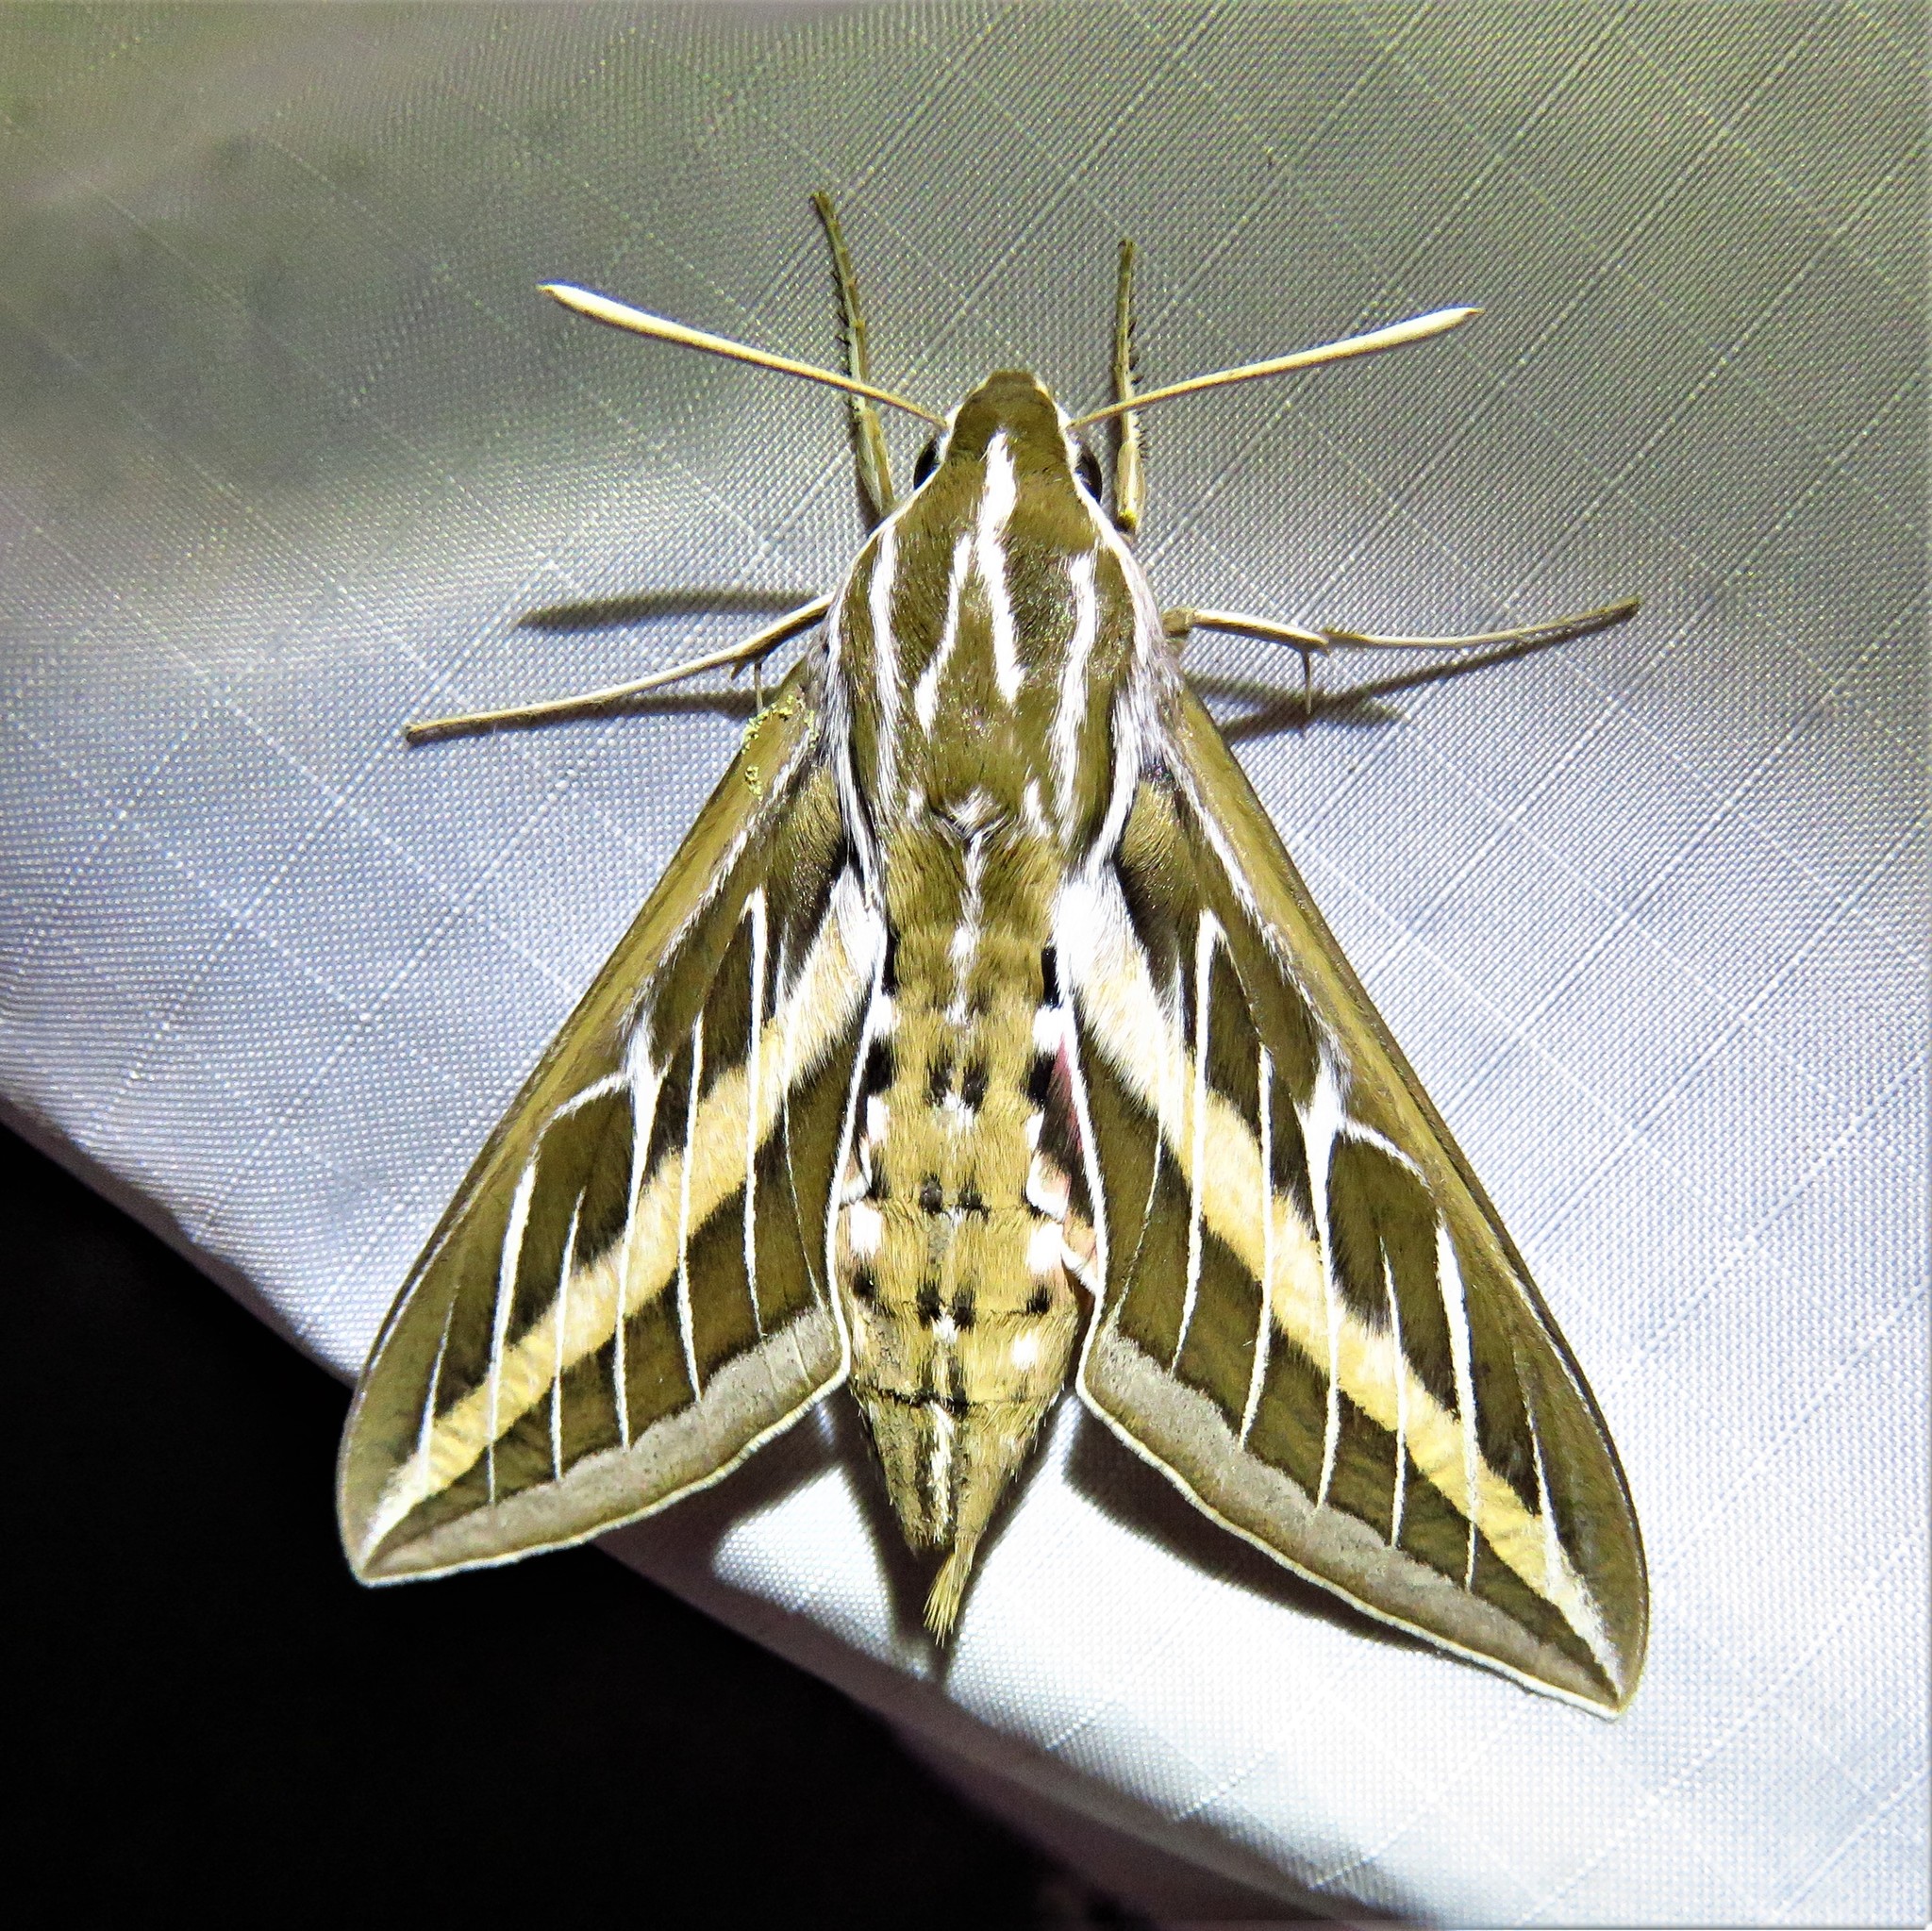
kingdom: Animalia
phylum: Arthropoda
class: Insecta
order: Lepidoptera
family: Sphingidae
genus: Hyles
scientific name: Hyles lineata
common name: White-lined sphinx
